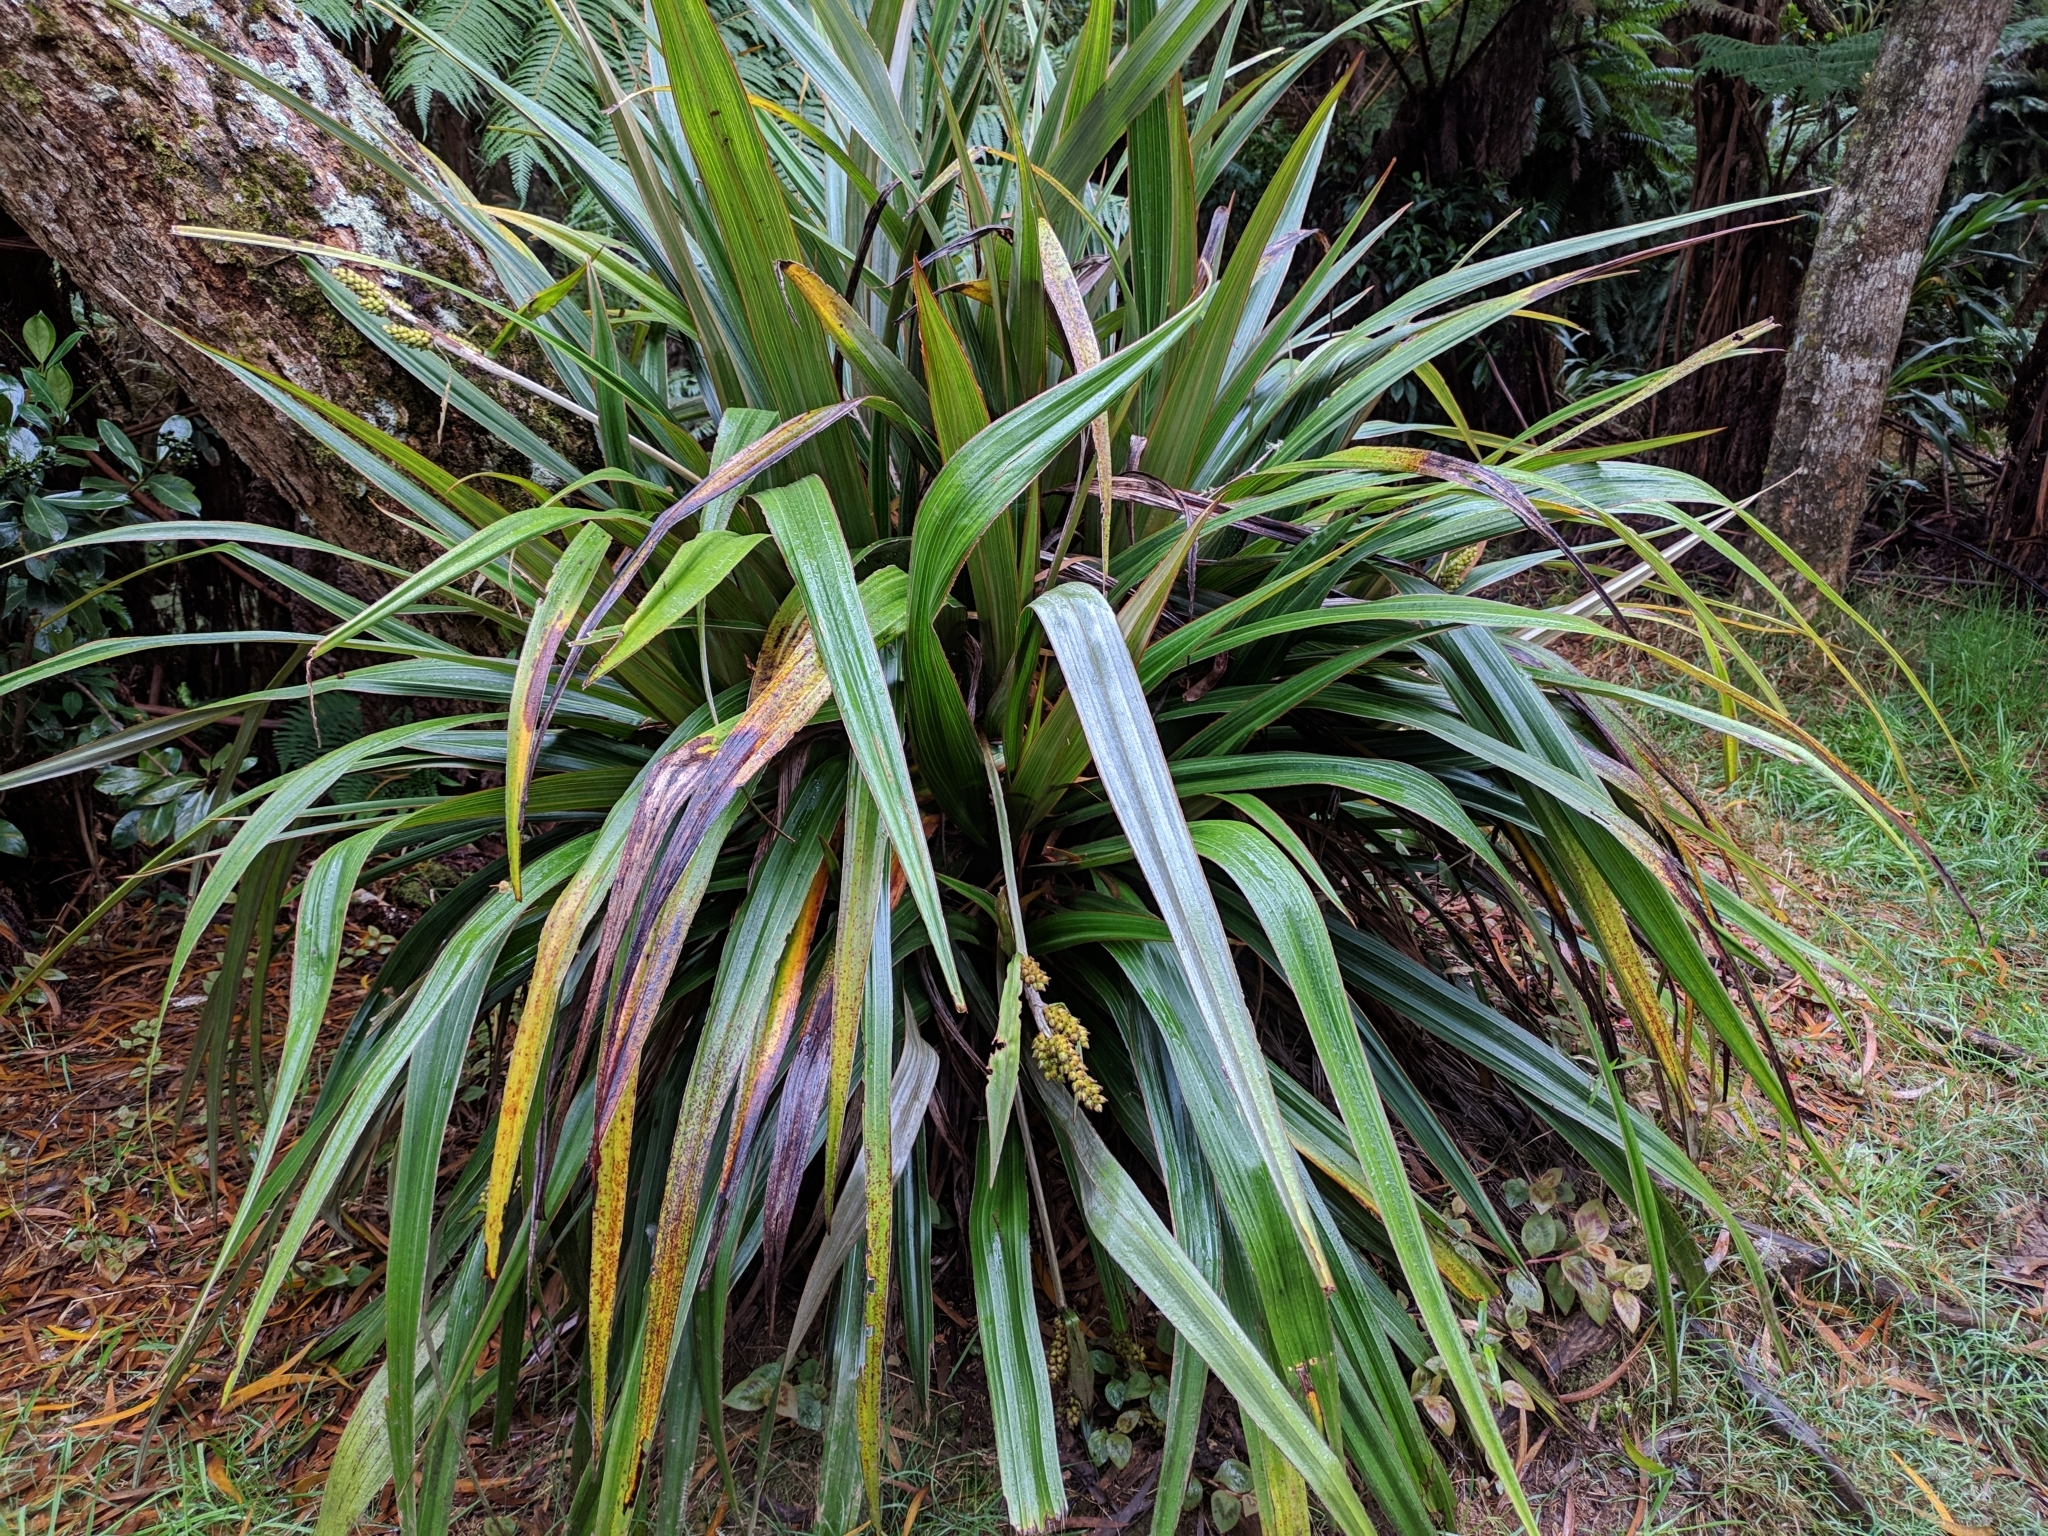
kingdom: Plantae
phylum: Tracheophyta
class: Liliopsida
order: Asparagales
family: Asteliaceae
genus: Astelia
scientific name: Astelia hemichrysa
